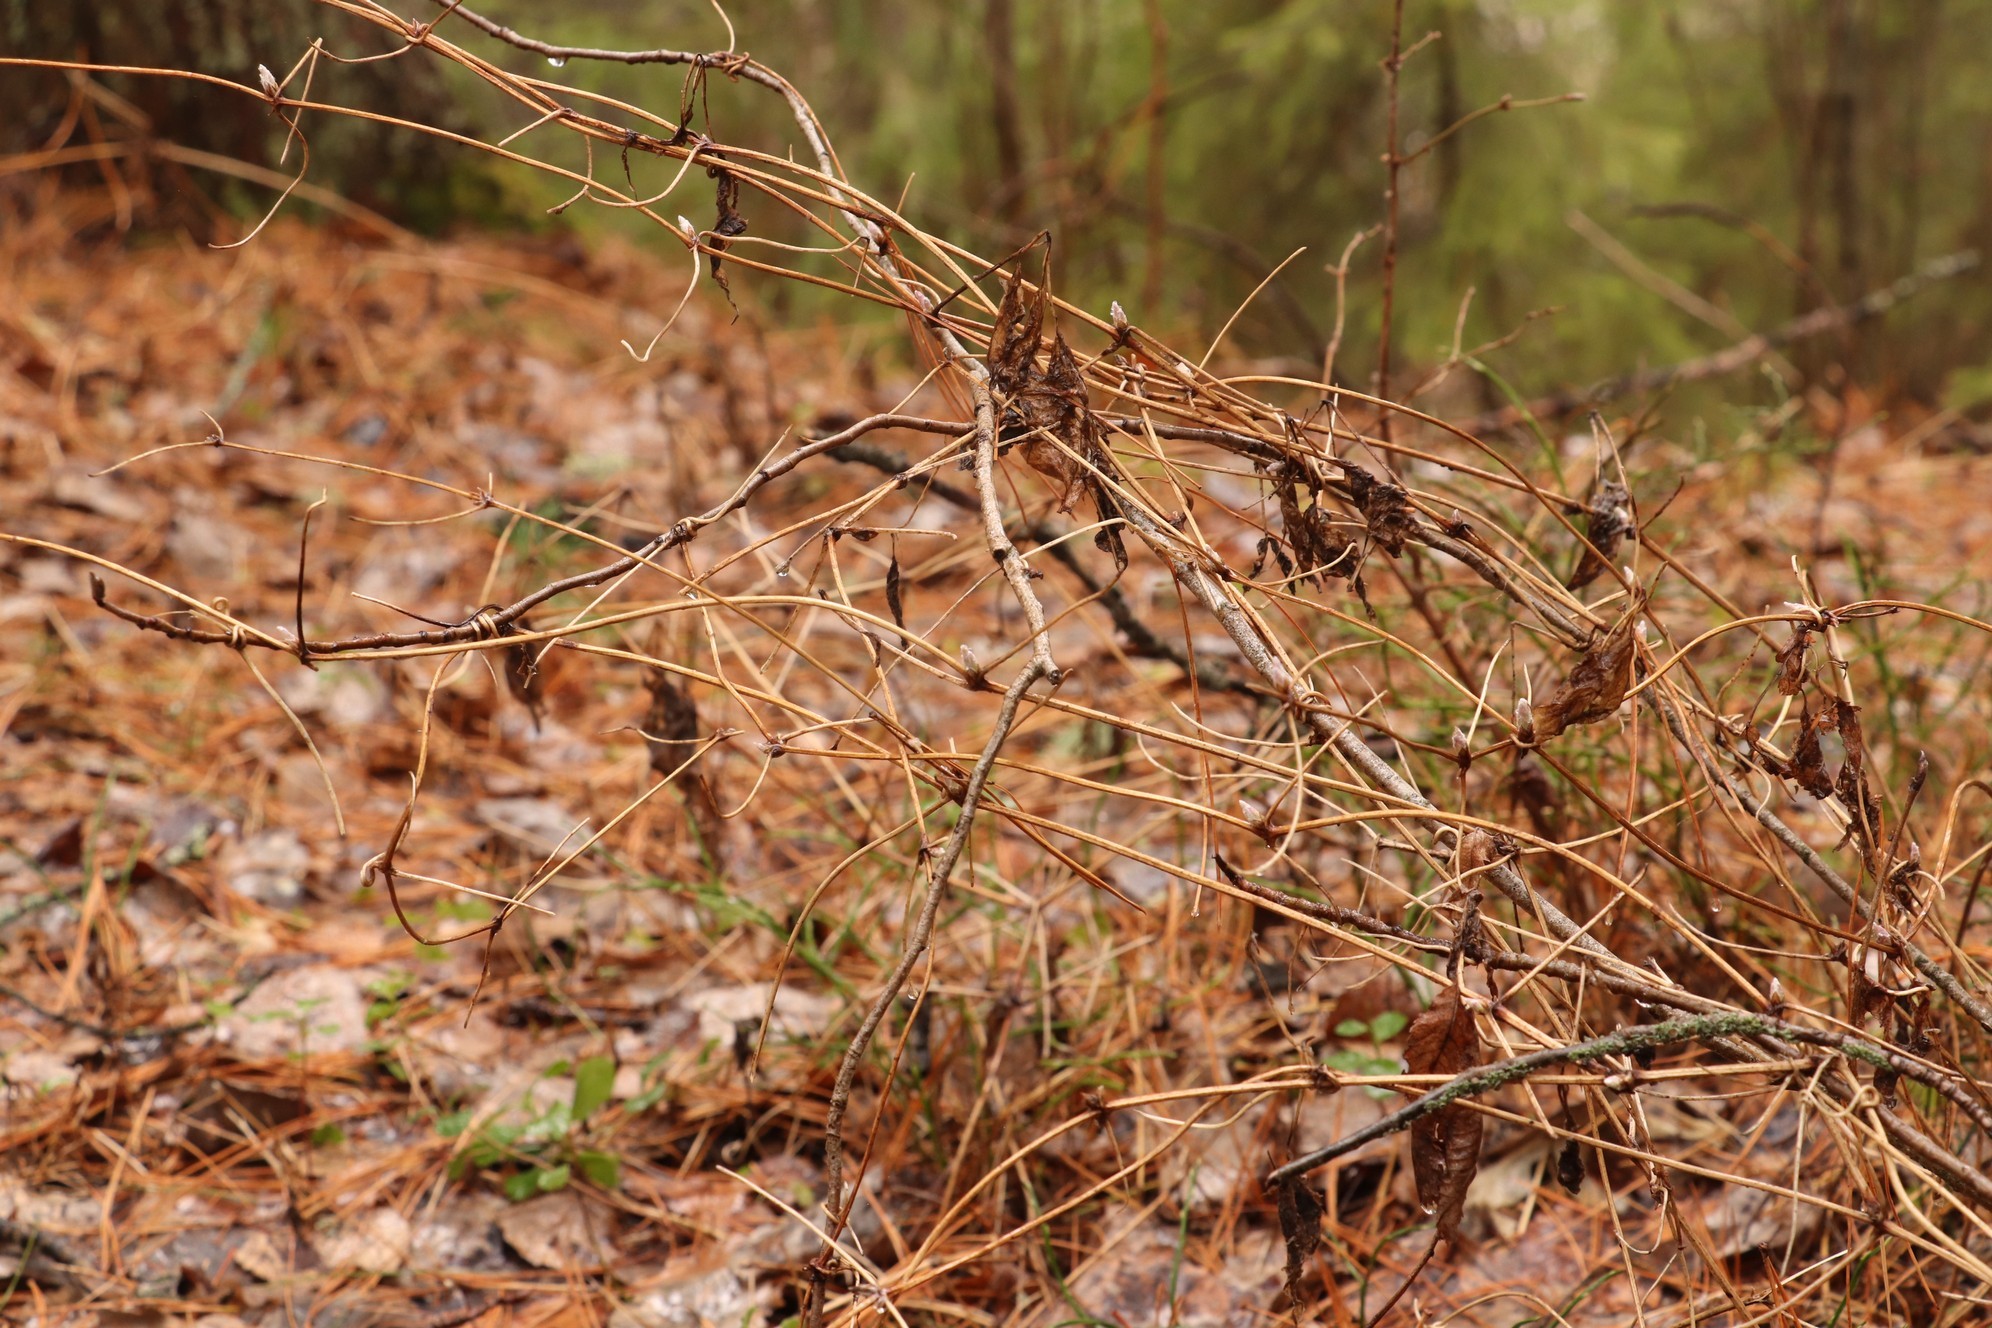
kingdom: Plantae
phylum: Tracheophyta
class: Magnoliopsida
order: Ranunculales
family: Ranunculaceae
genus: Clematis
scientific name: Clematis sibirica
